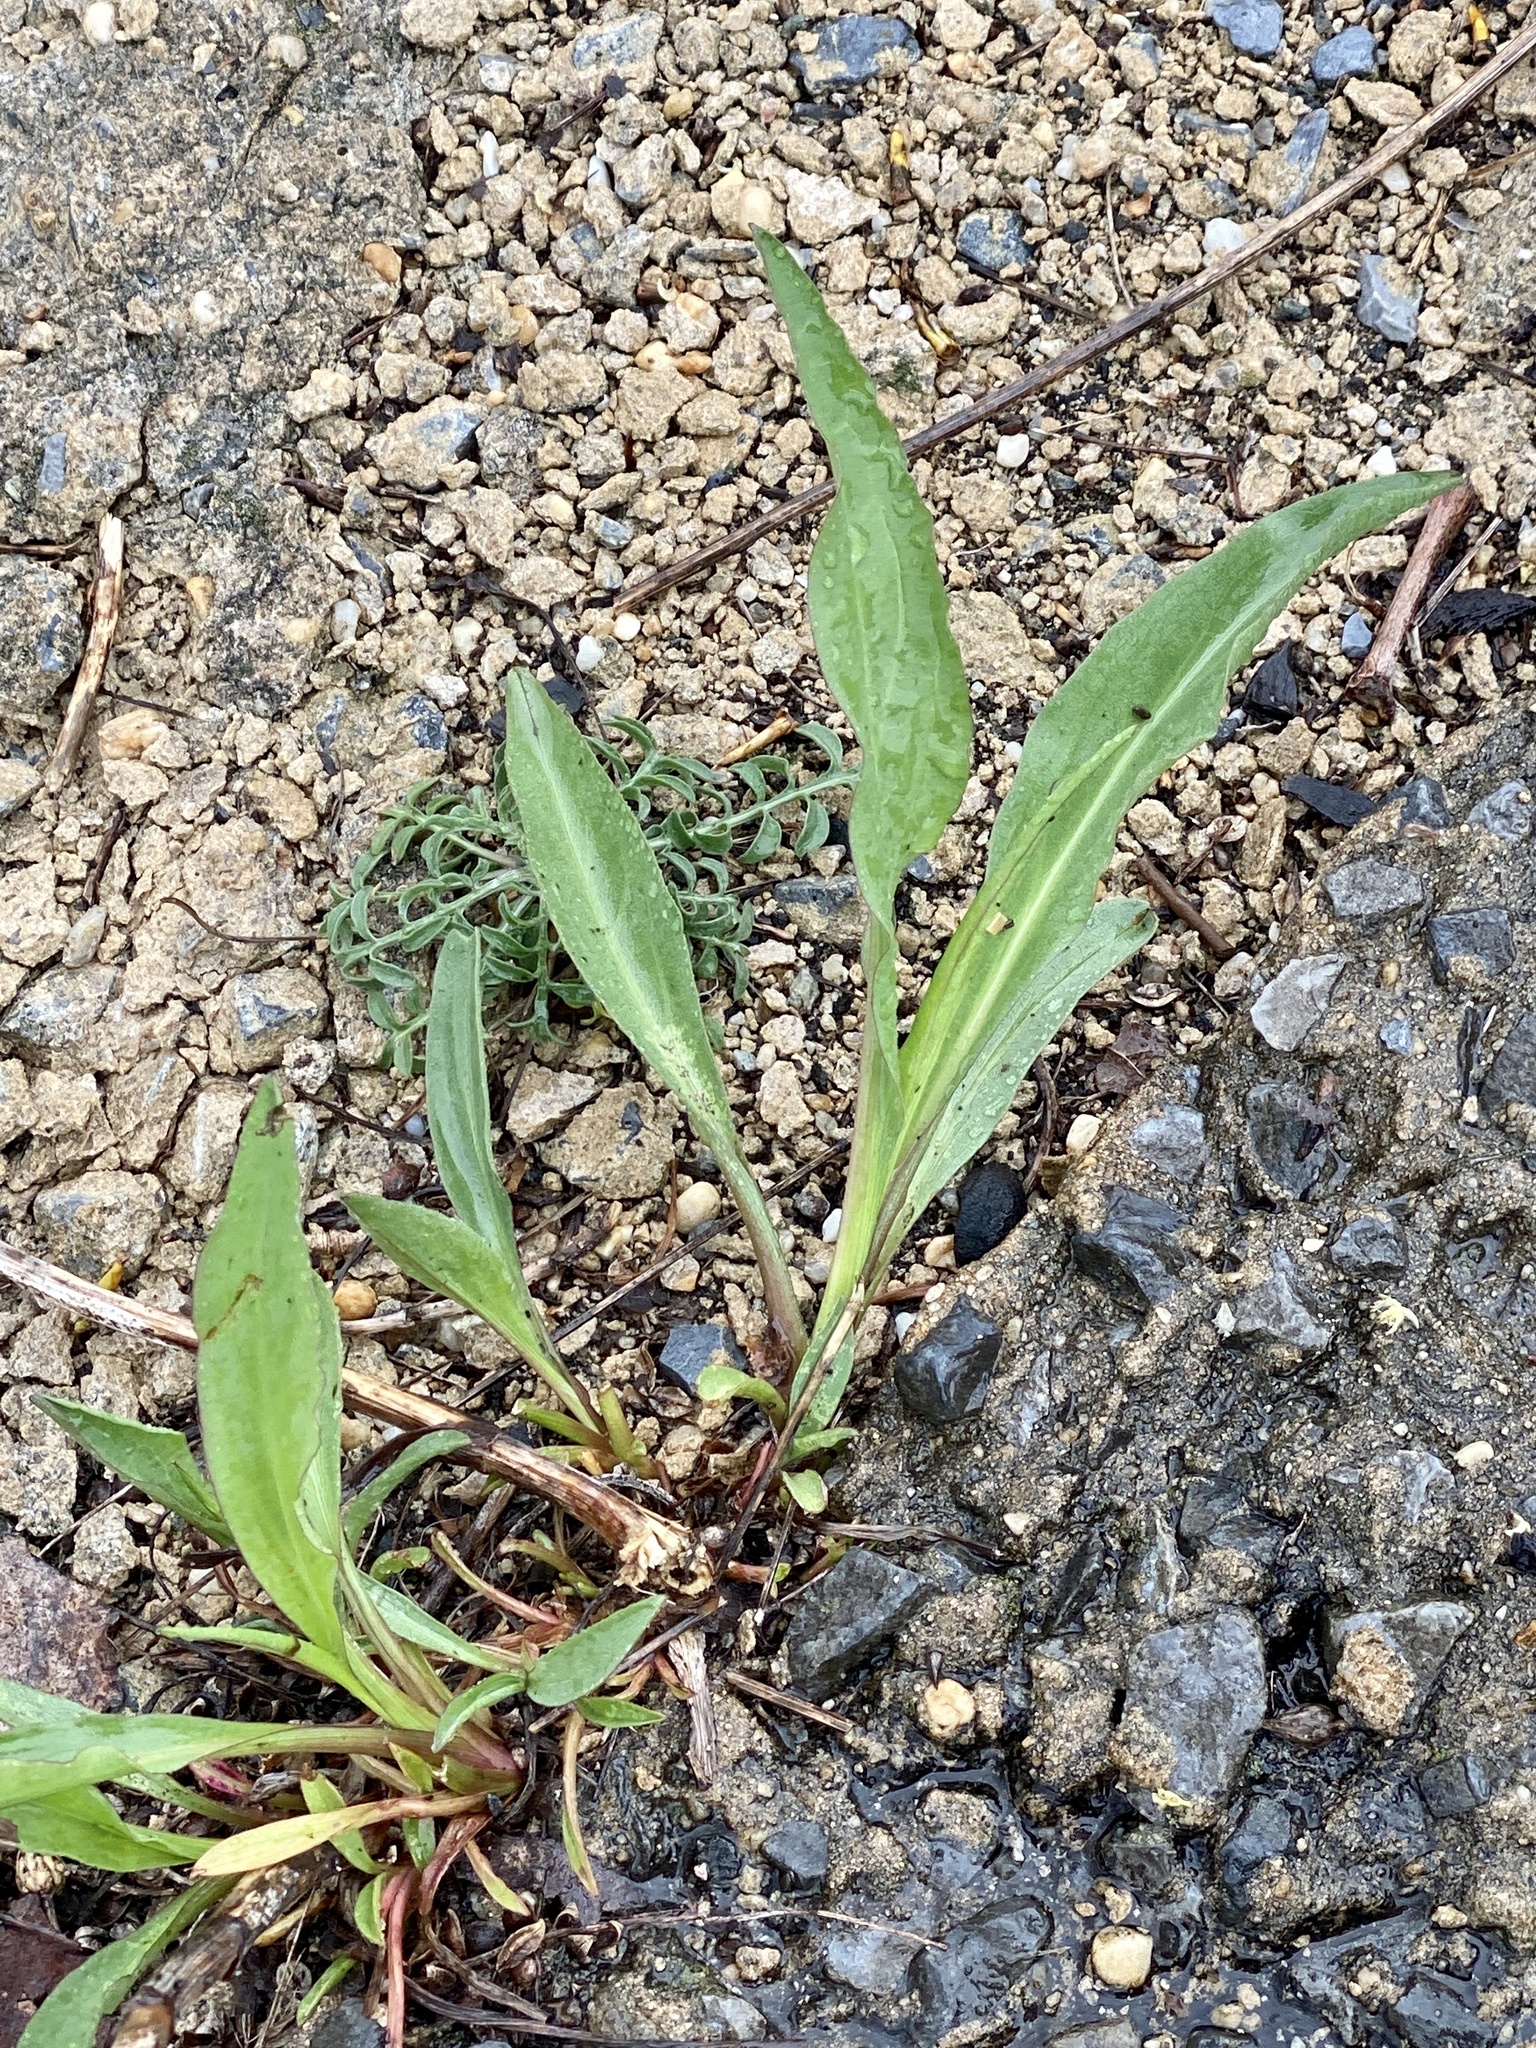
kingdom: Plantae
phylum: Tracheophyta
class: Magnoliopsida
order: Asterales
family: Asteraceae
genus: Solidago
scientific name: Solidago sempervirens
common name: Salt-marsh goldenrod
